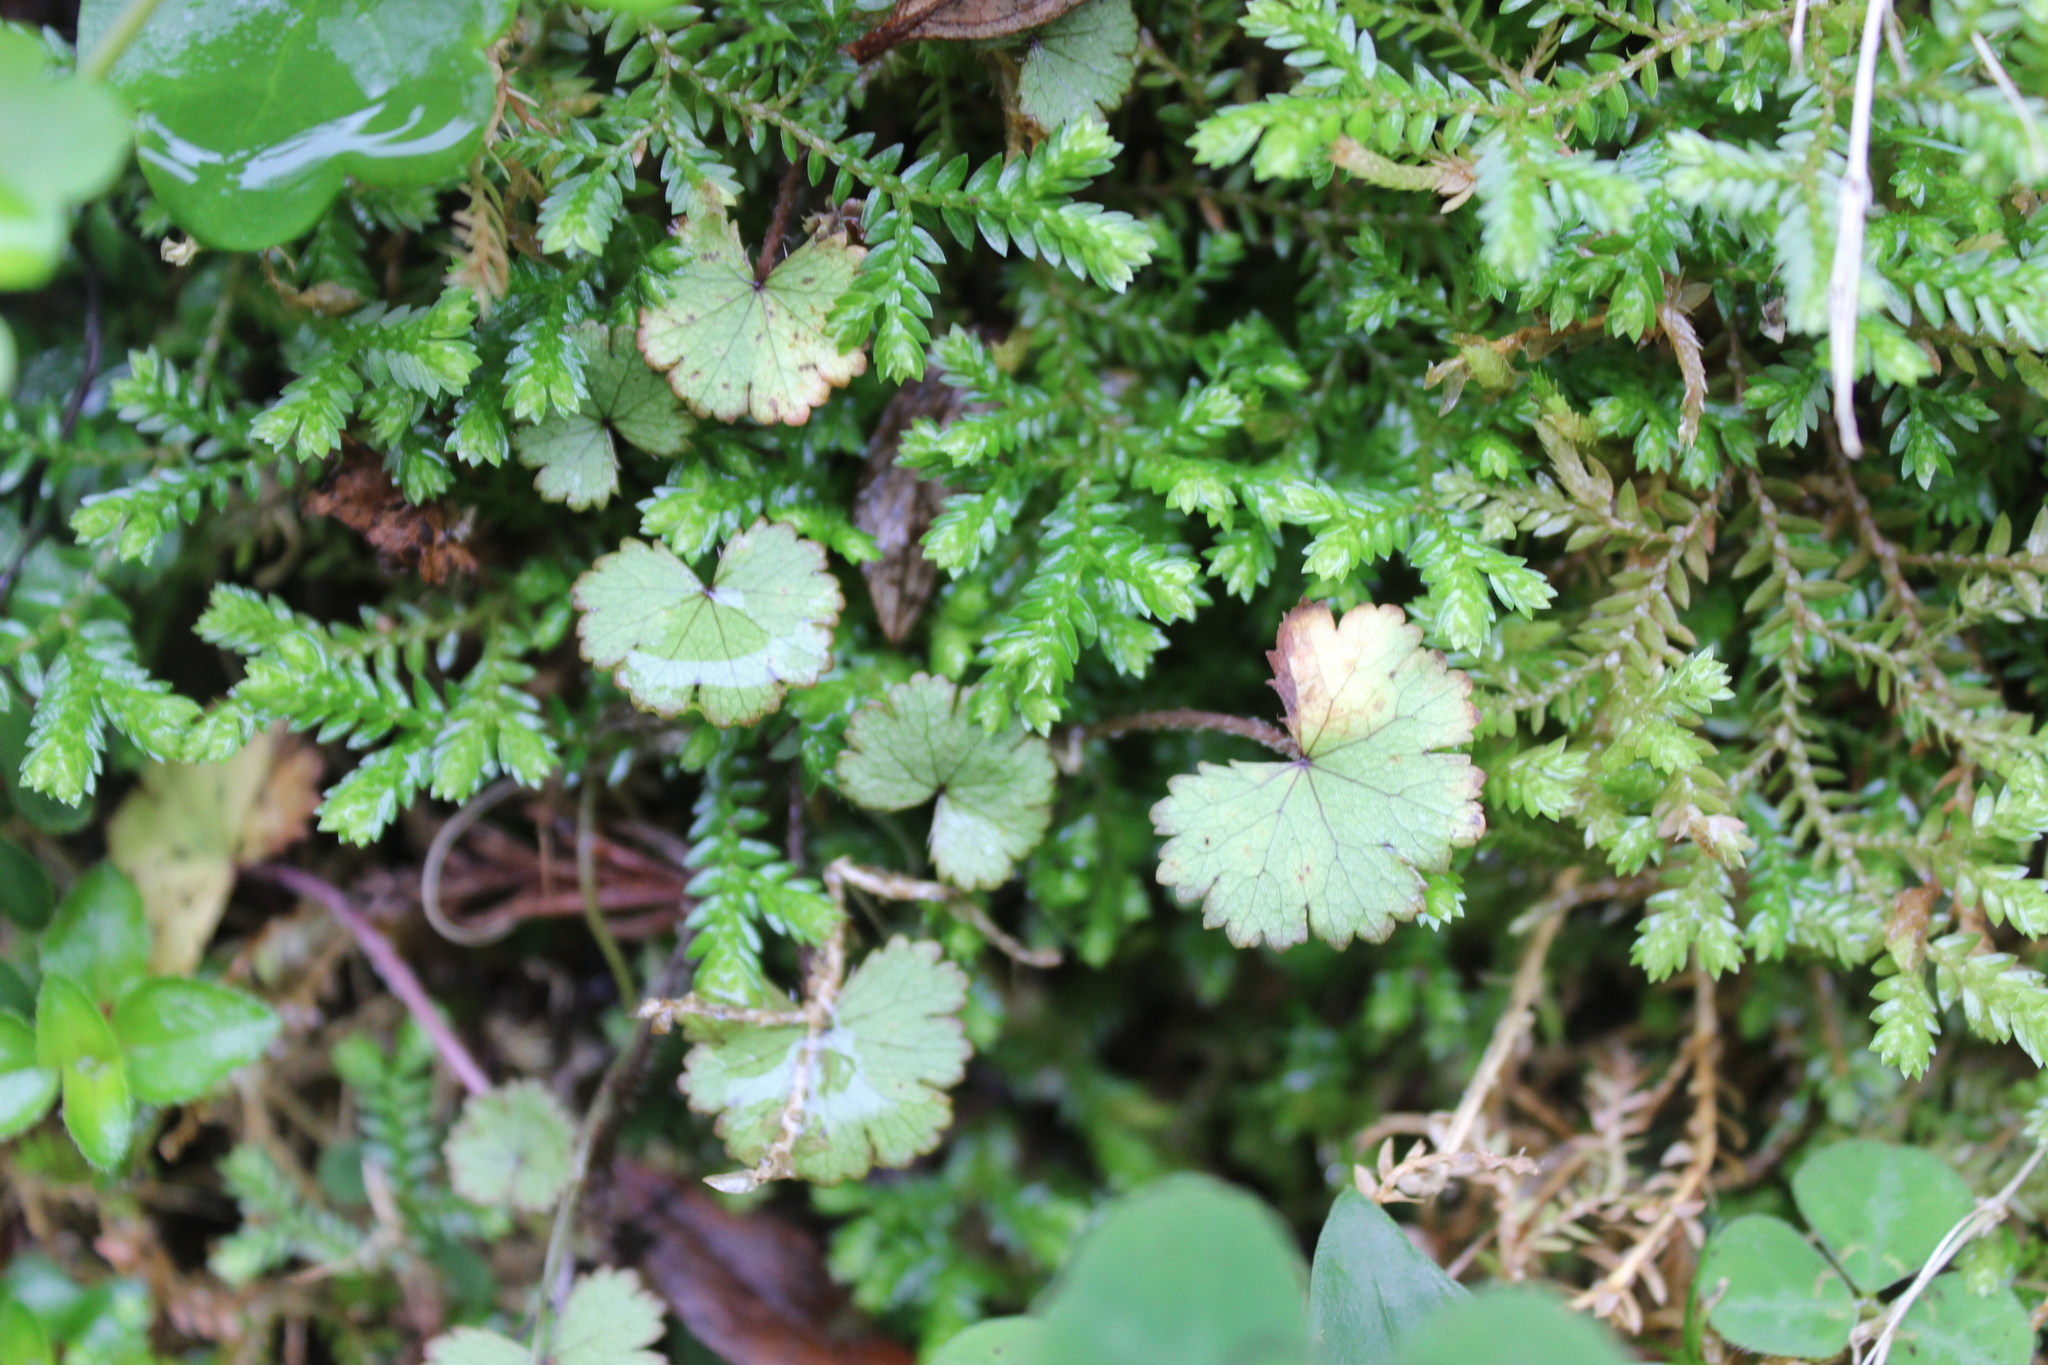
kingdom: Plantae
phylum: Tracheophyta
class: Magnoliopsida
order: Apiales
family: Araliaceae
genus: Hydrocotyle
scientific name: Hydrocotyle moschata
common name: Hairy pennywort
